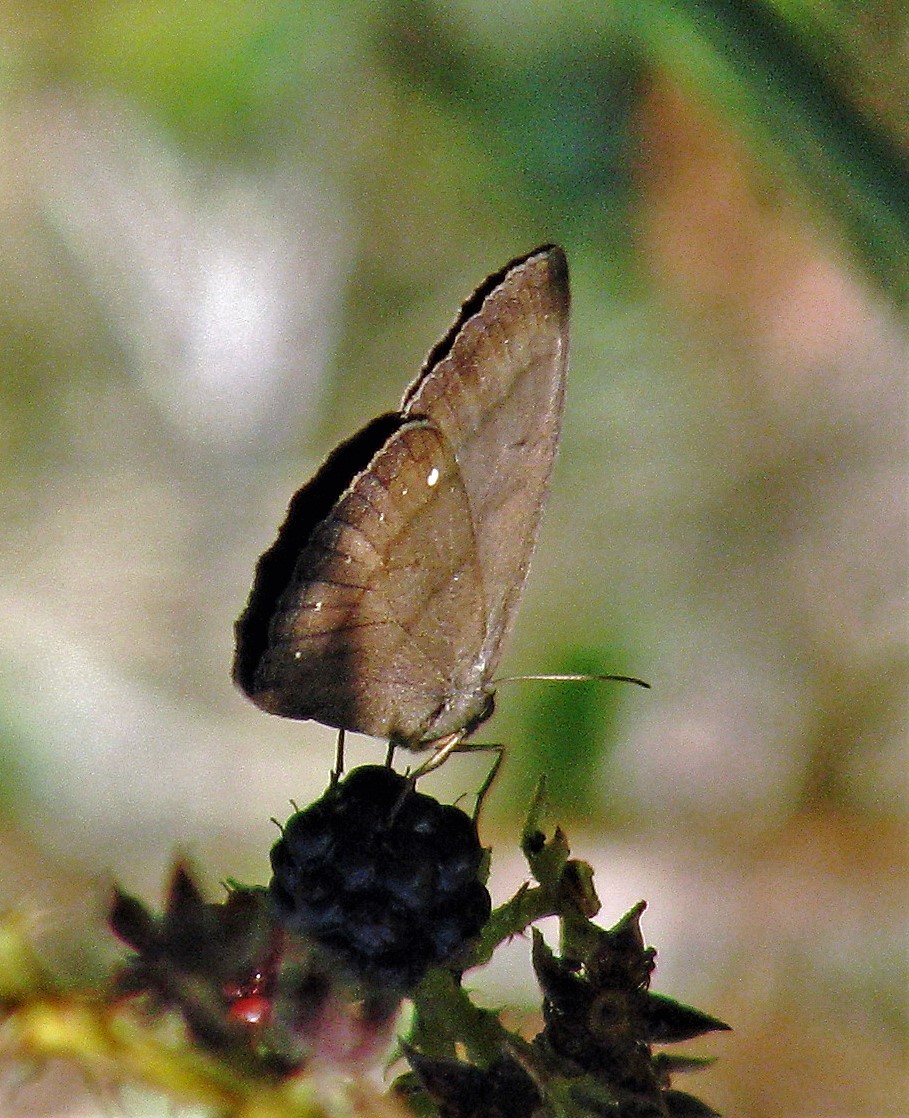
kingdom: Animalia
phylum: Arthropoda
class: Insecta
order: Lepidoptera
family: Nymphalidae
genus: Forsterinaria
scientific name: Forsterinaria quantius
